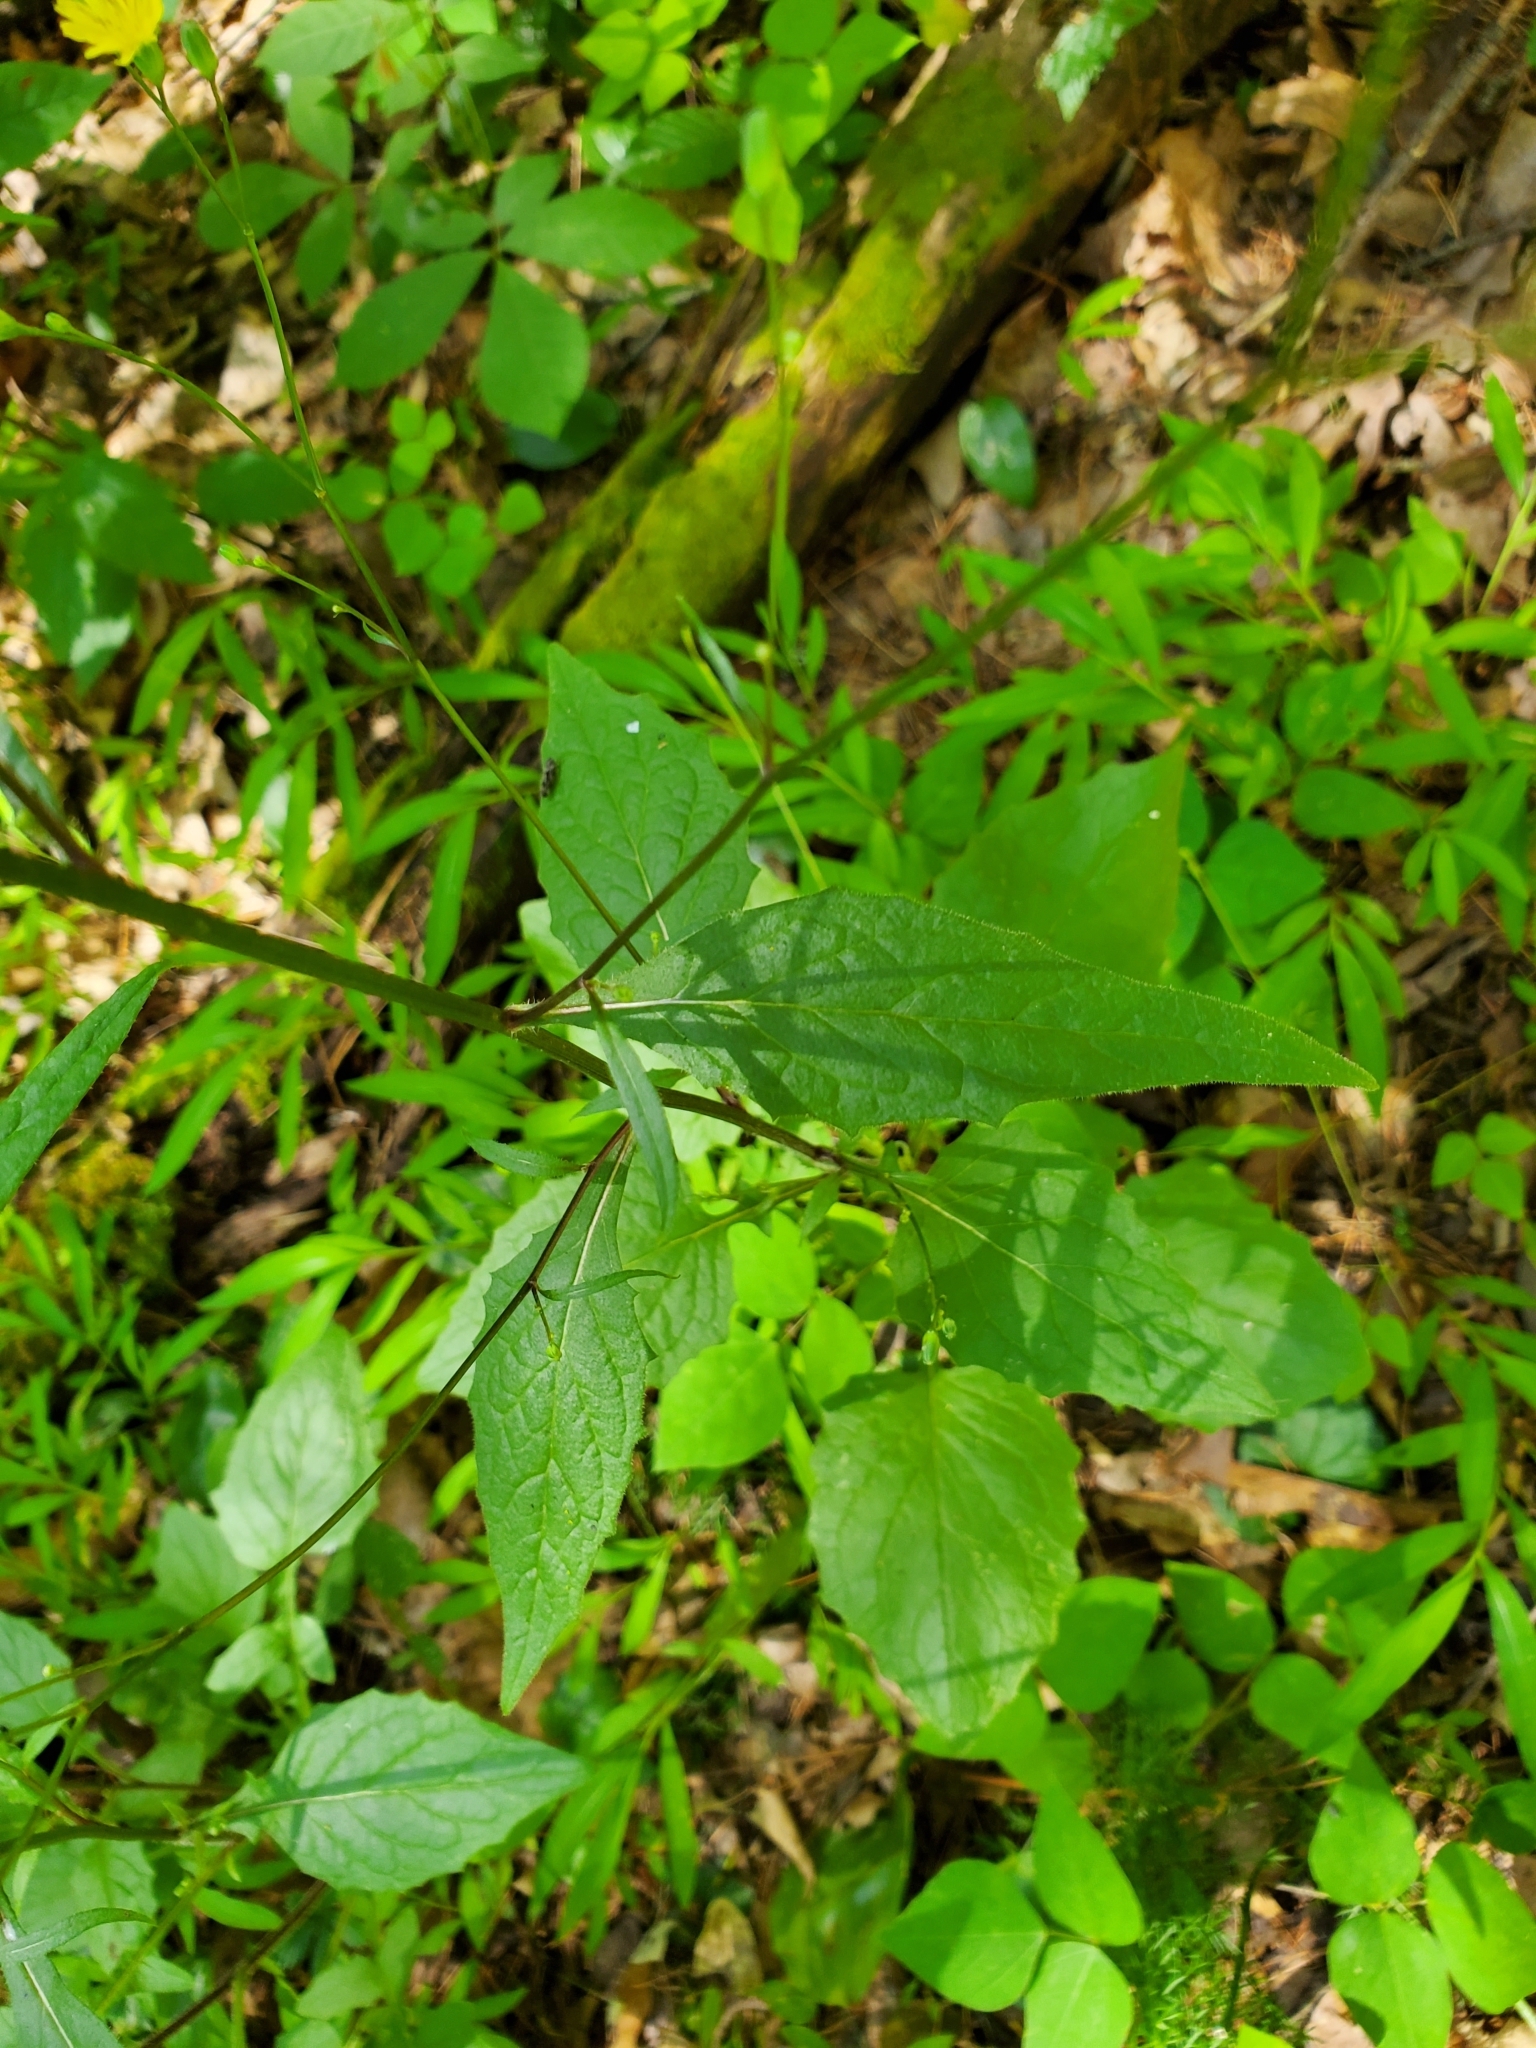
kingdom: Plantae
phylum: Tracheophyta
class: Magnoliopsida
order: Asterales
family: Asteraceae
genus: Lapsana
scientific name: Lapsana communis
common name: Nipplewort
